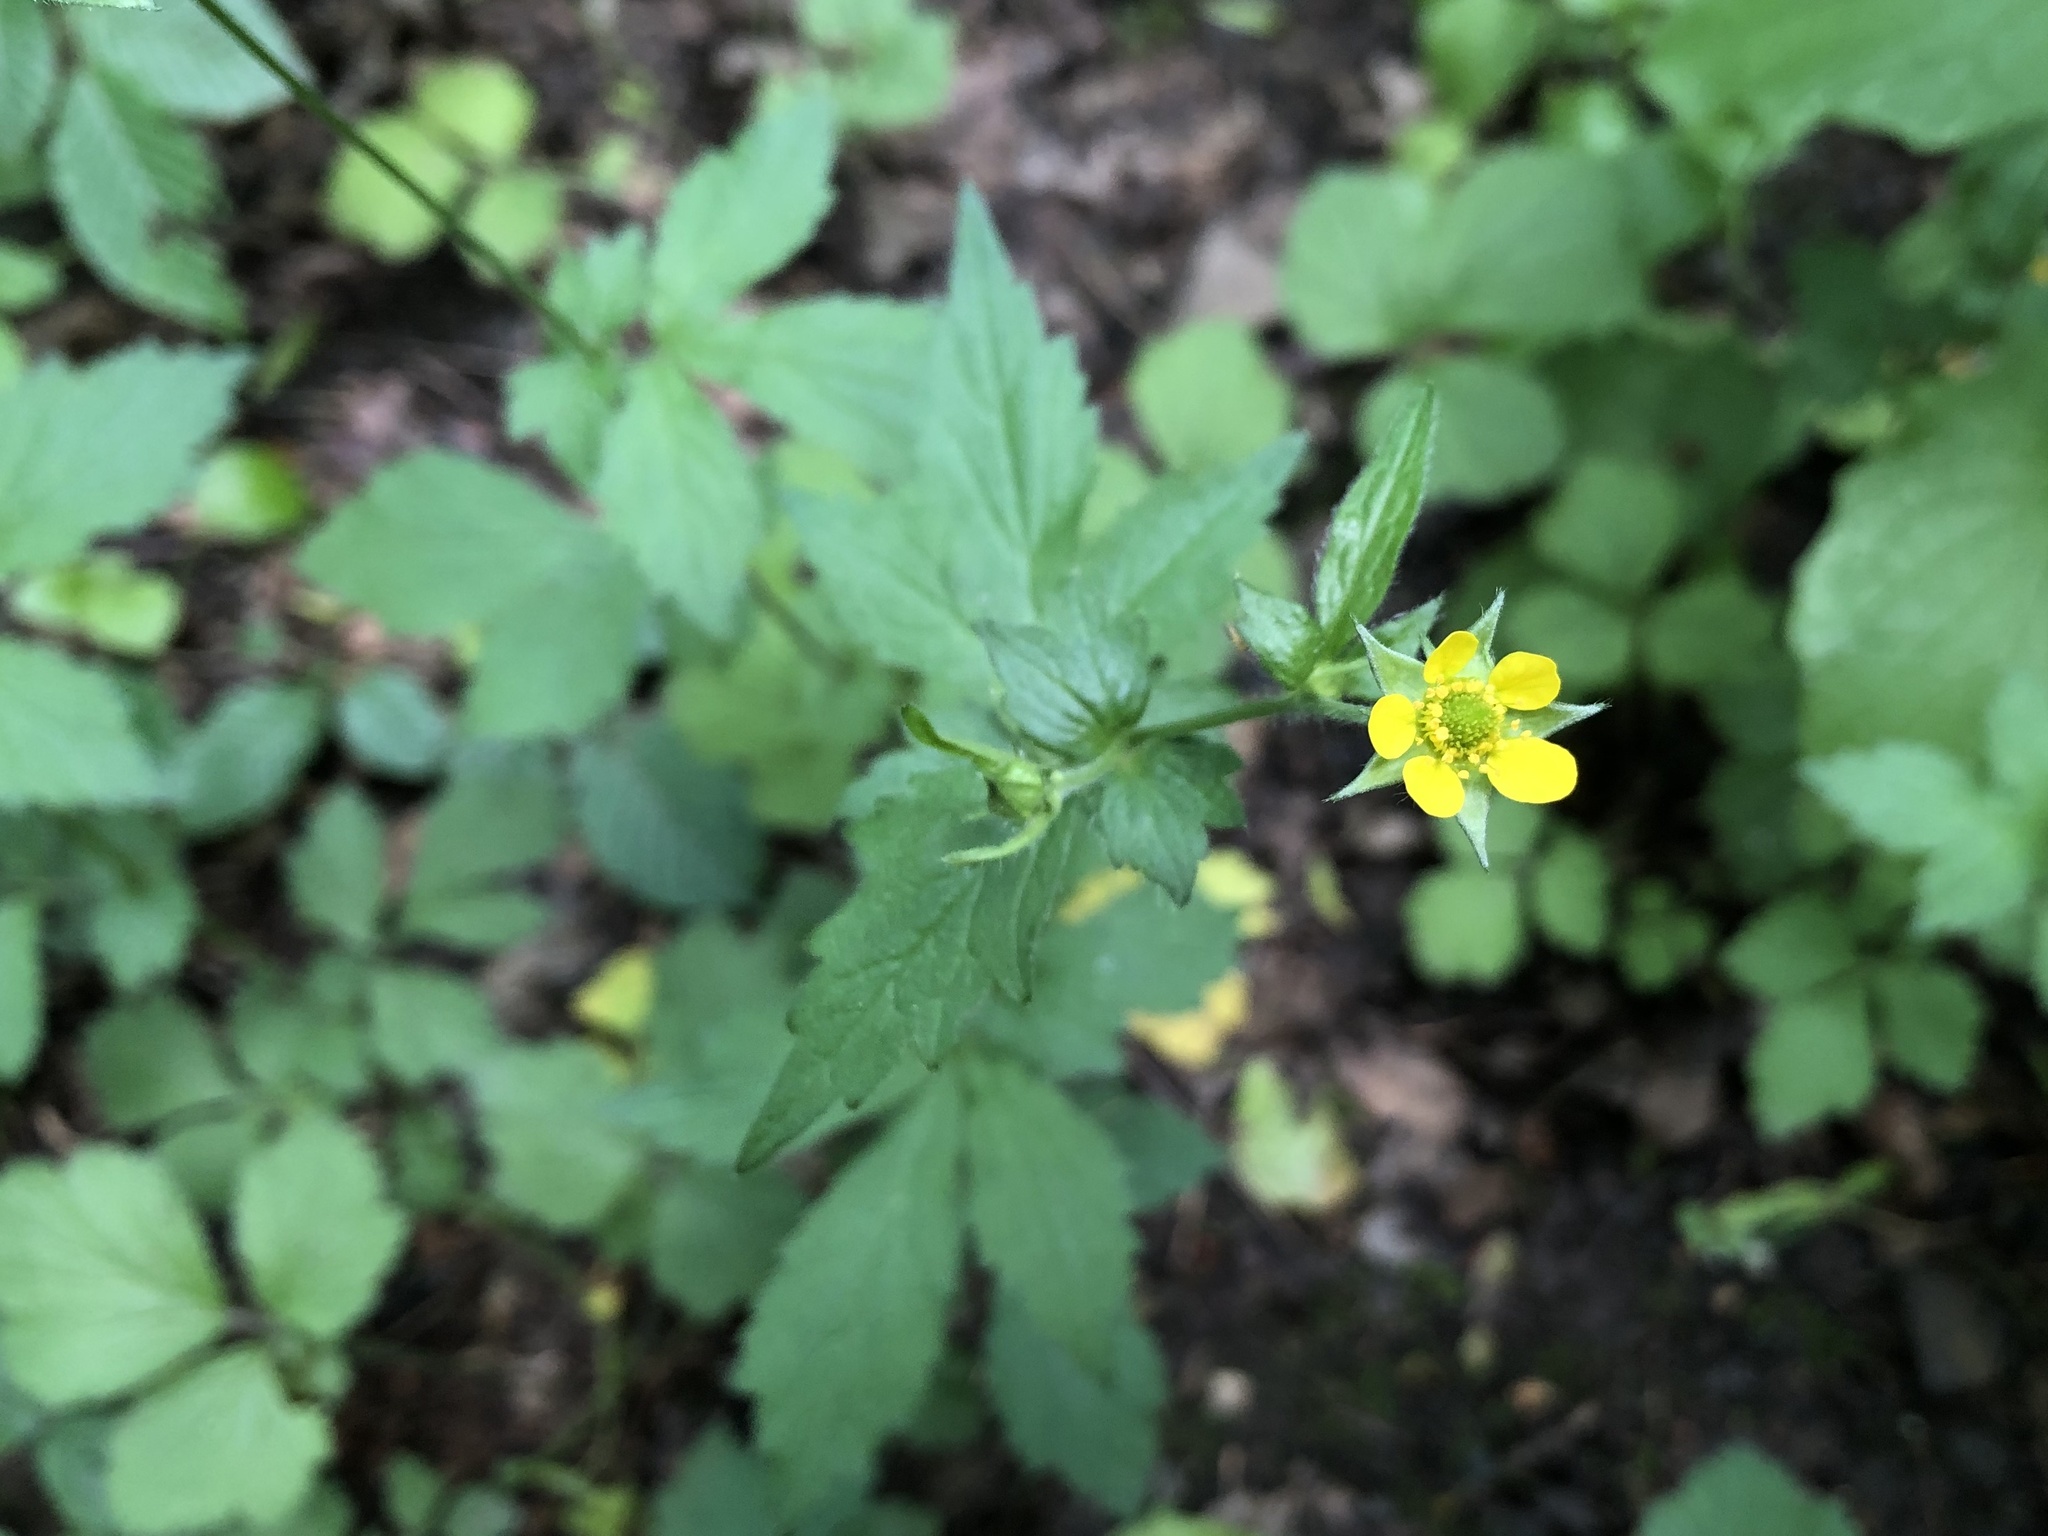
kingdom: Plantae
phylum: Tracheophyta
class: Magnoliopsida
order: Rosales
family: Rosaceae
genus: Geum
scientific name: Geum urbanum
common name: Wood avens
